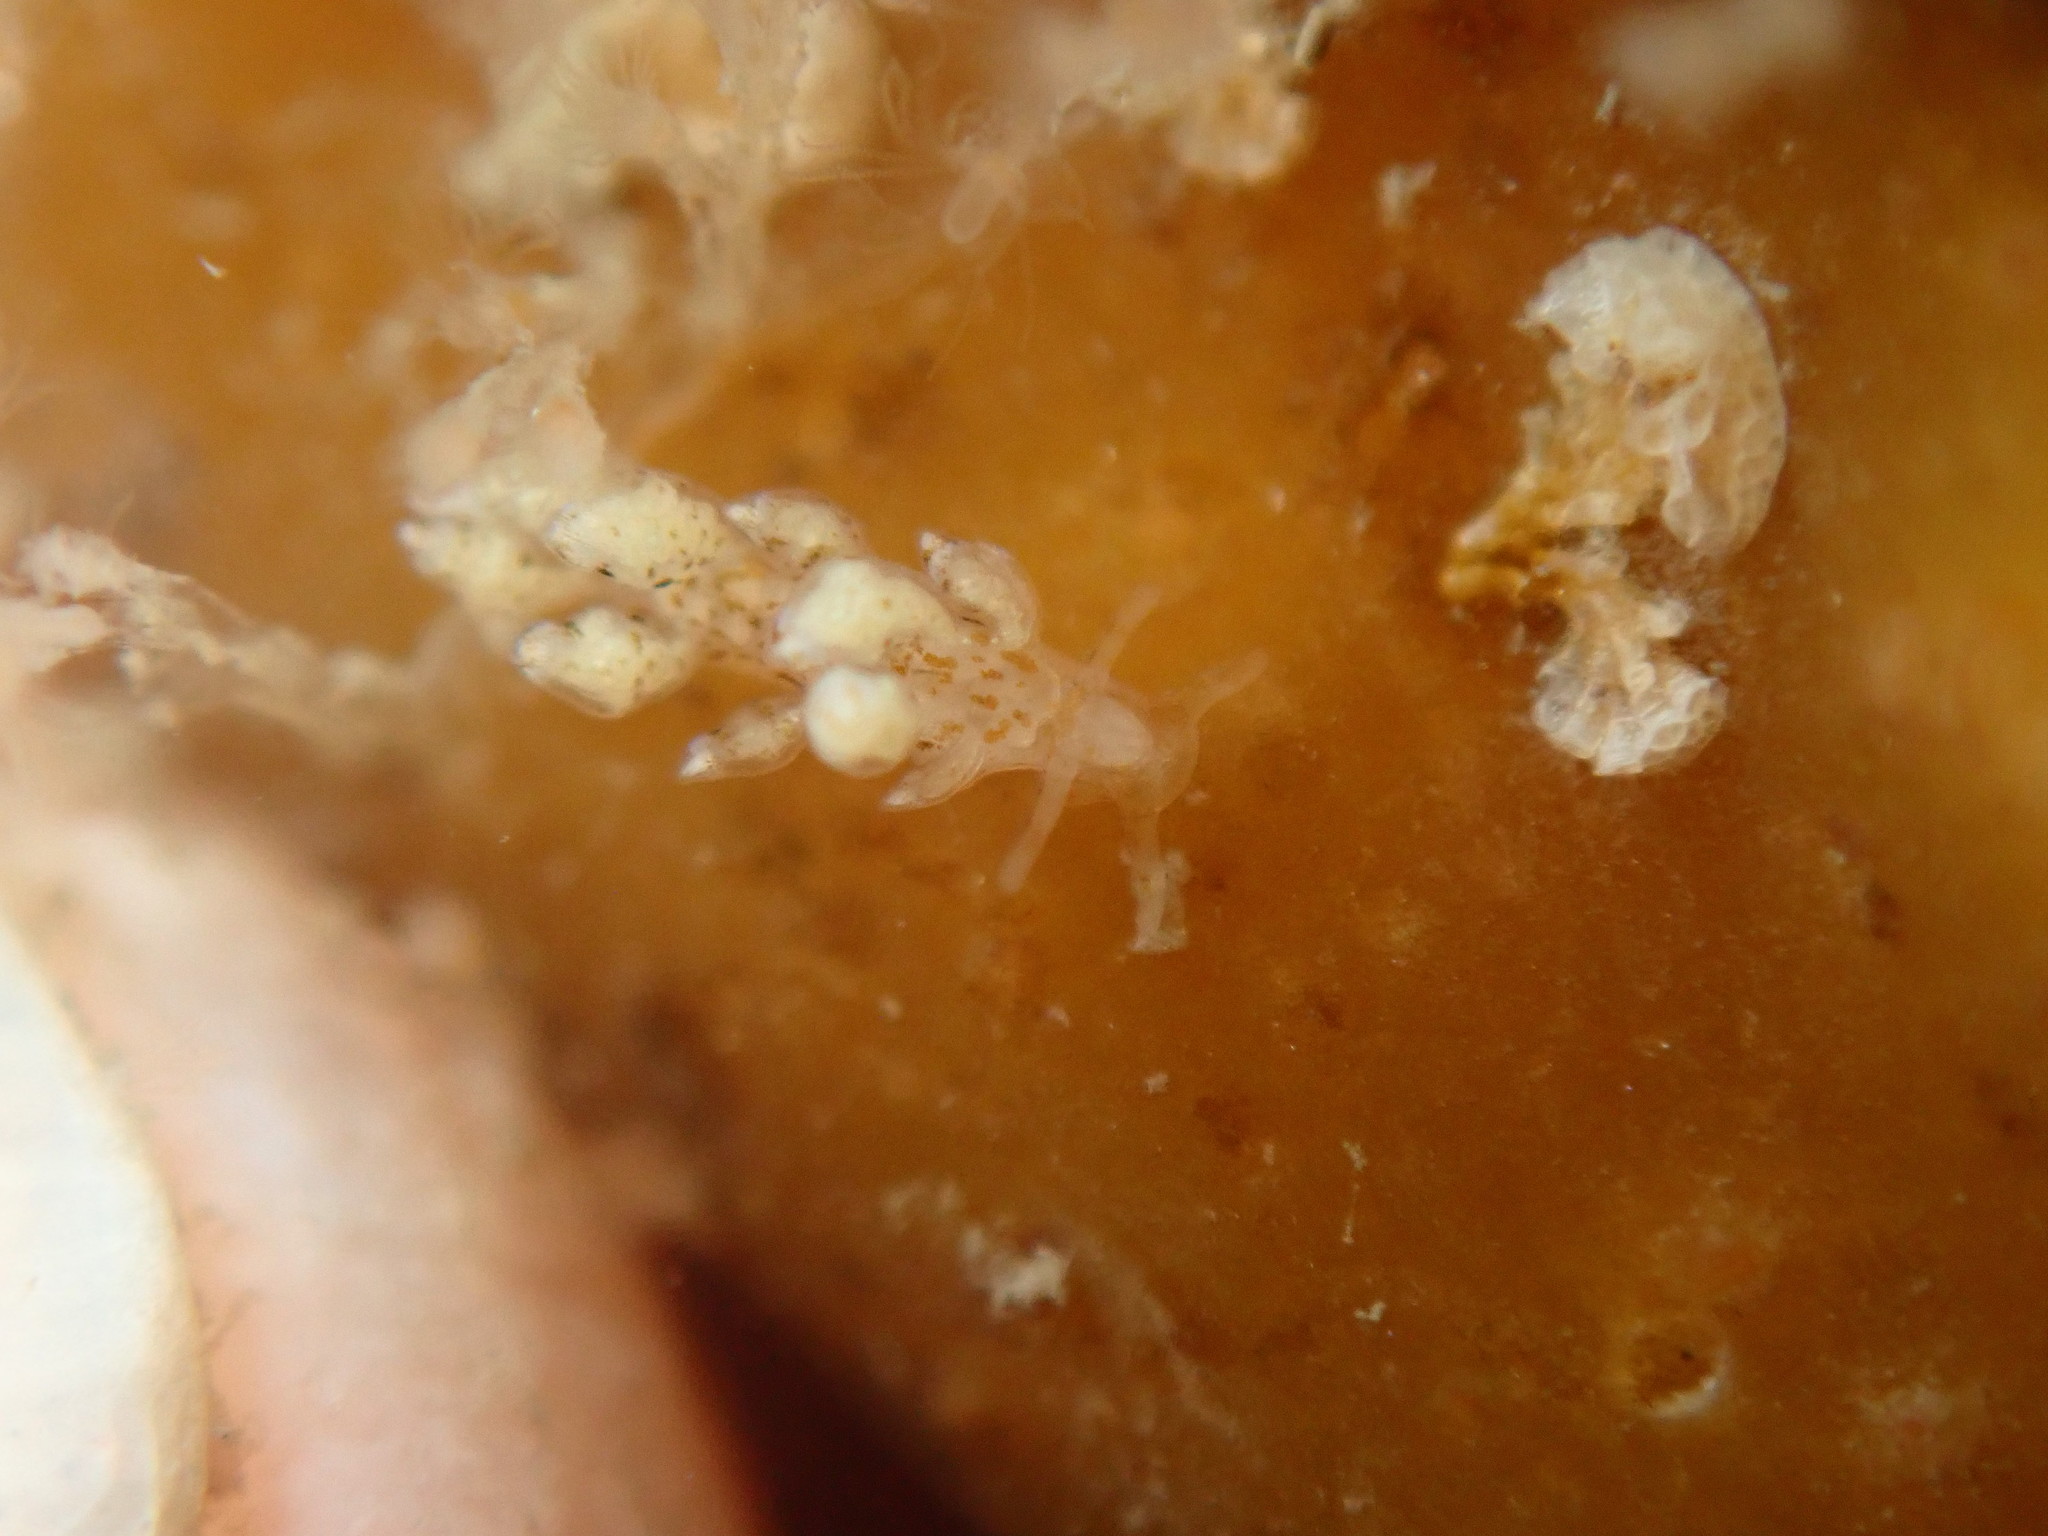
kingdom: Animalia
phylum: Mollusca
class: Gastropoda
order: Nudibranchia
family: Eubranchidae
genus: Eubranchus
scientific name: Eubranchus rustyus
